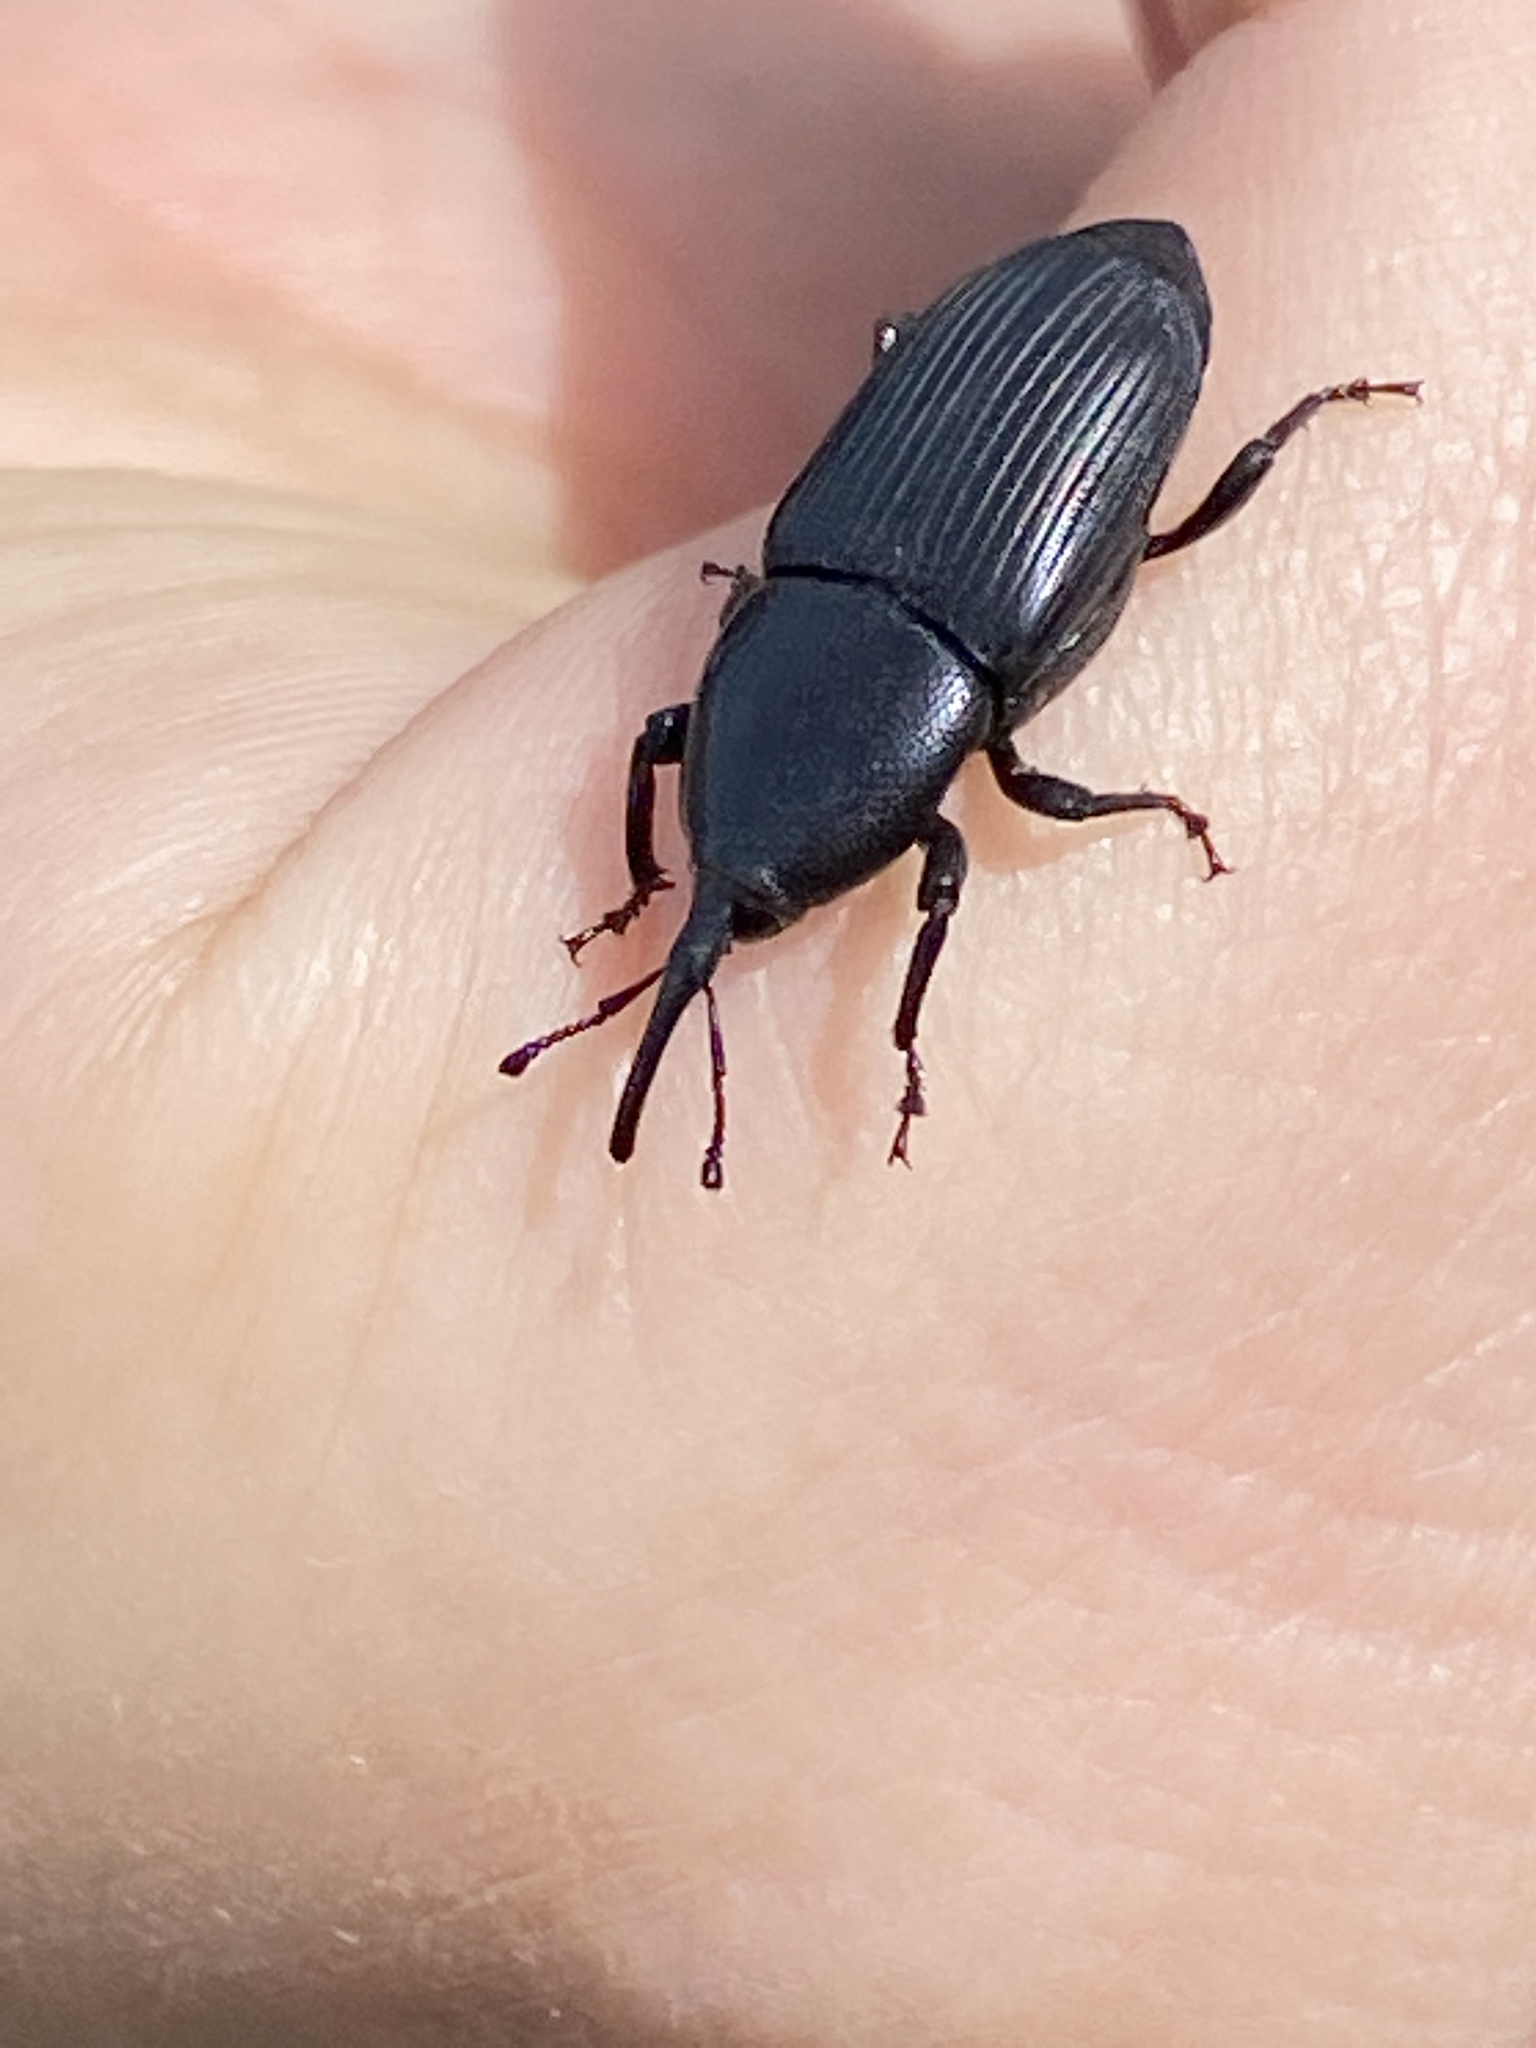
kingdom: Animalia
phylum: Arthropoda
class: Insecta
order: Coleoptera
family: Dryophthoridae
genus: Scyphophorus
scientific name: Scyphophorus yuccae
